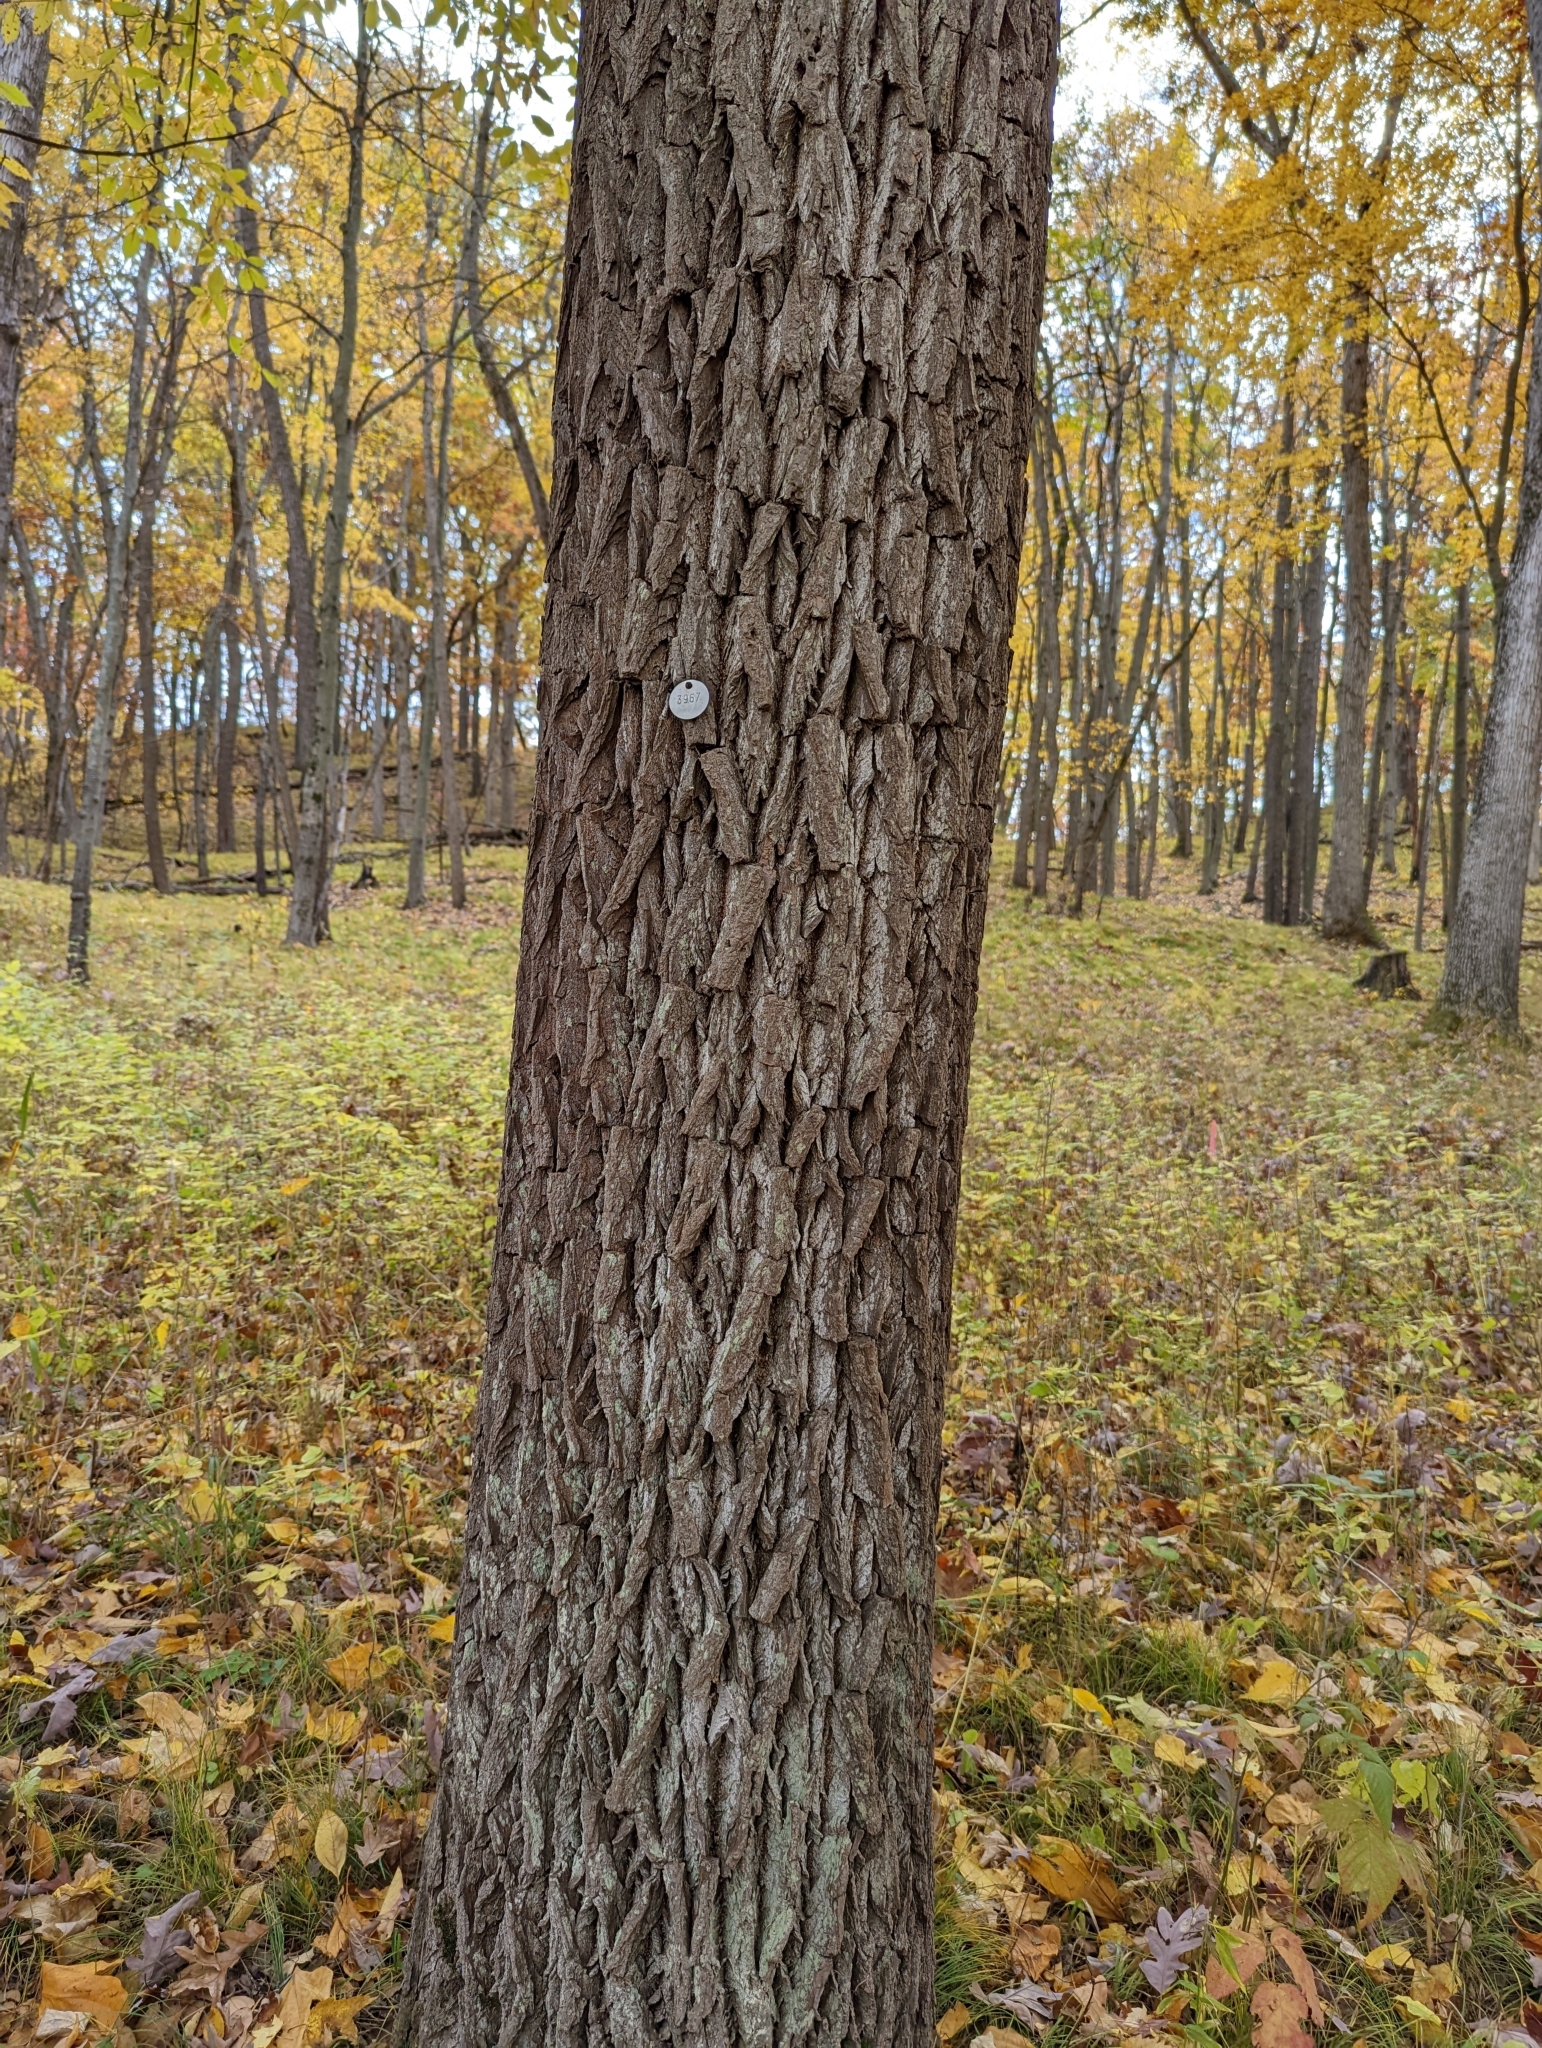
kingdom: Plantae
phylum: Tracheophyta
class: Magnoliopsida
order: Laurales
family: Lauraceae
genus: Sassafras
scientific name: Sassafras albidum
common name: Sassafras
